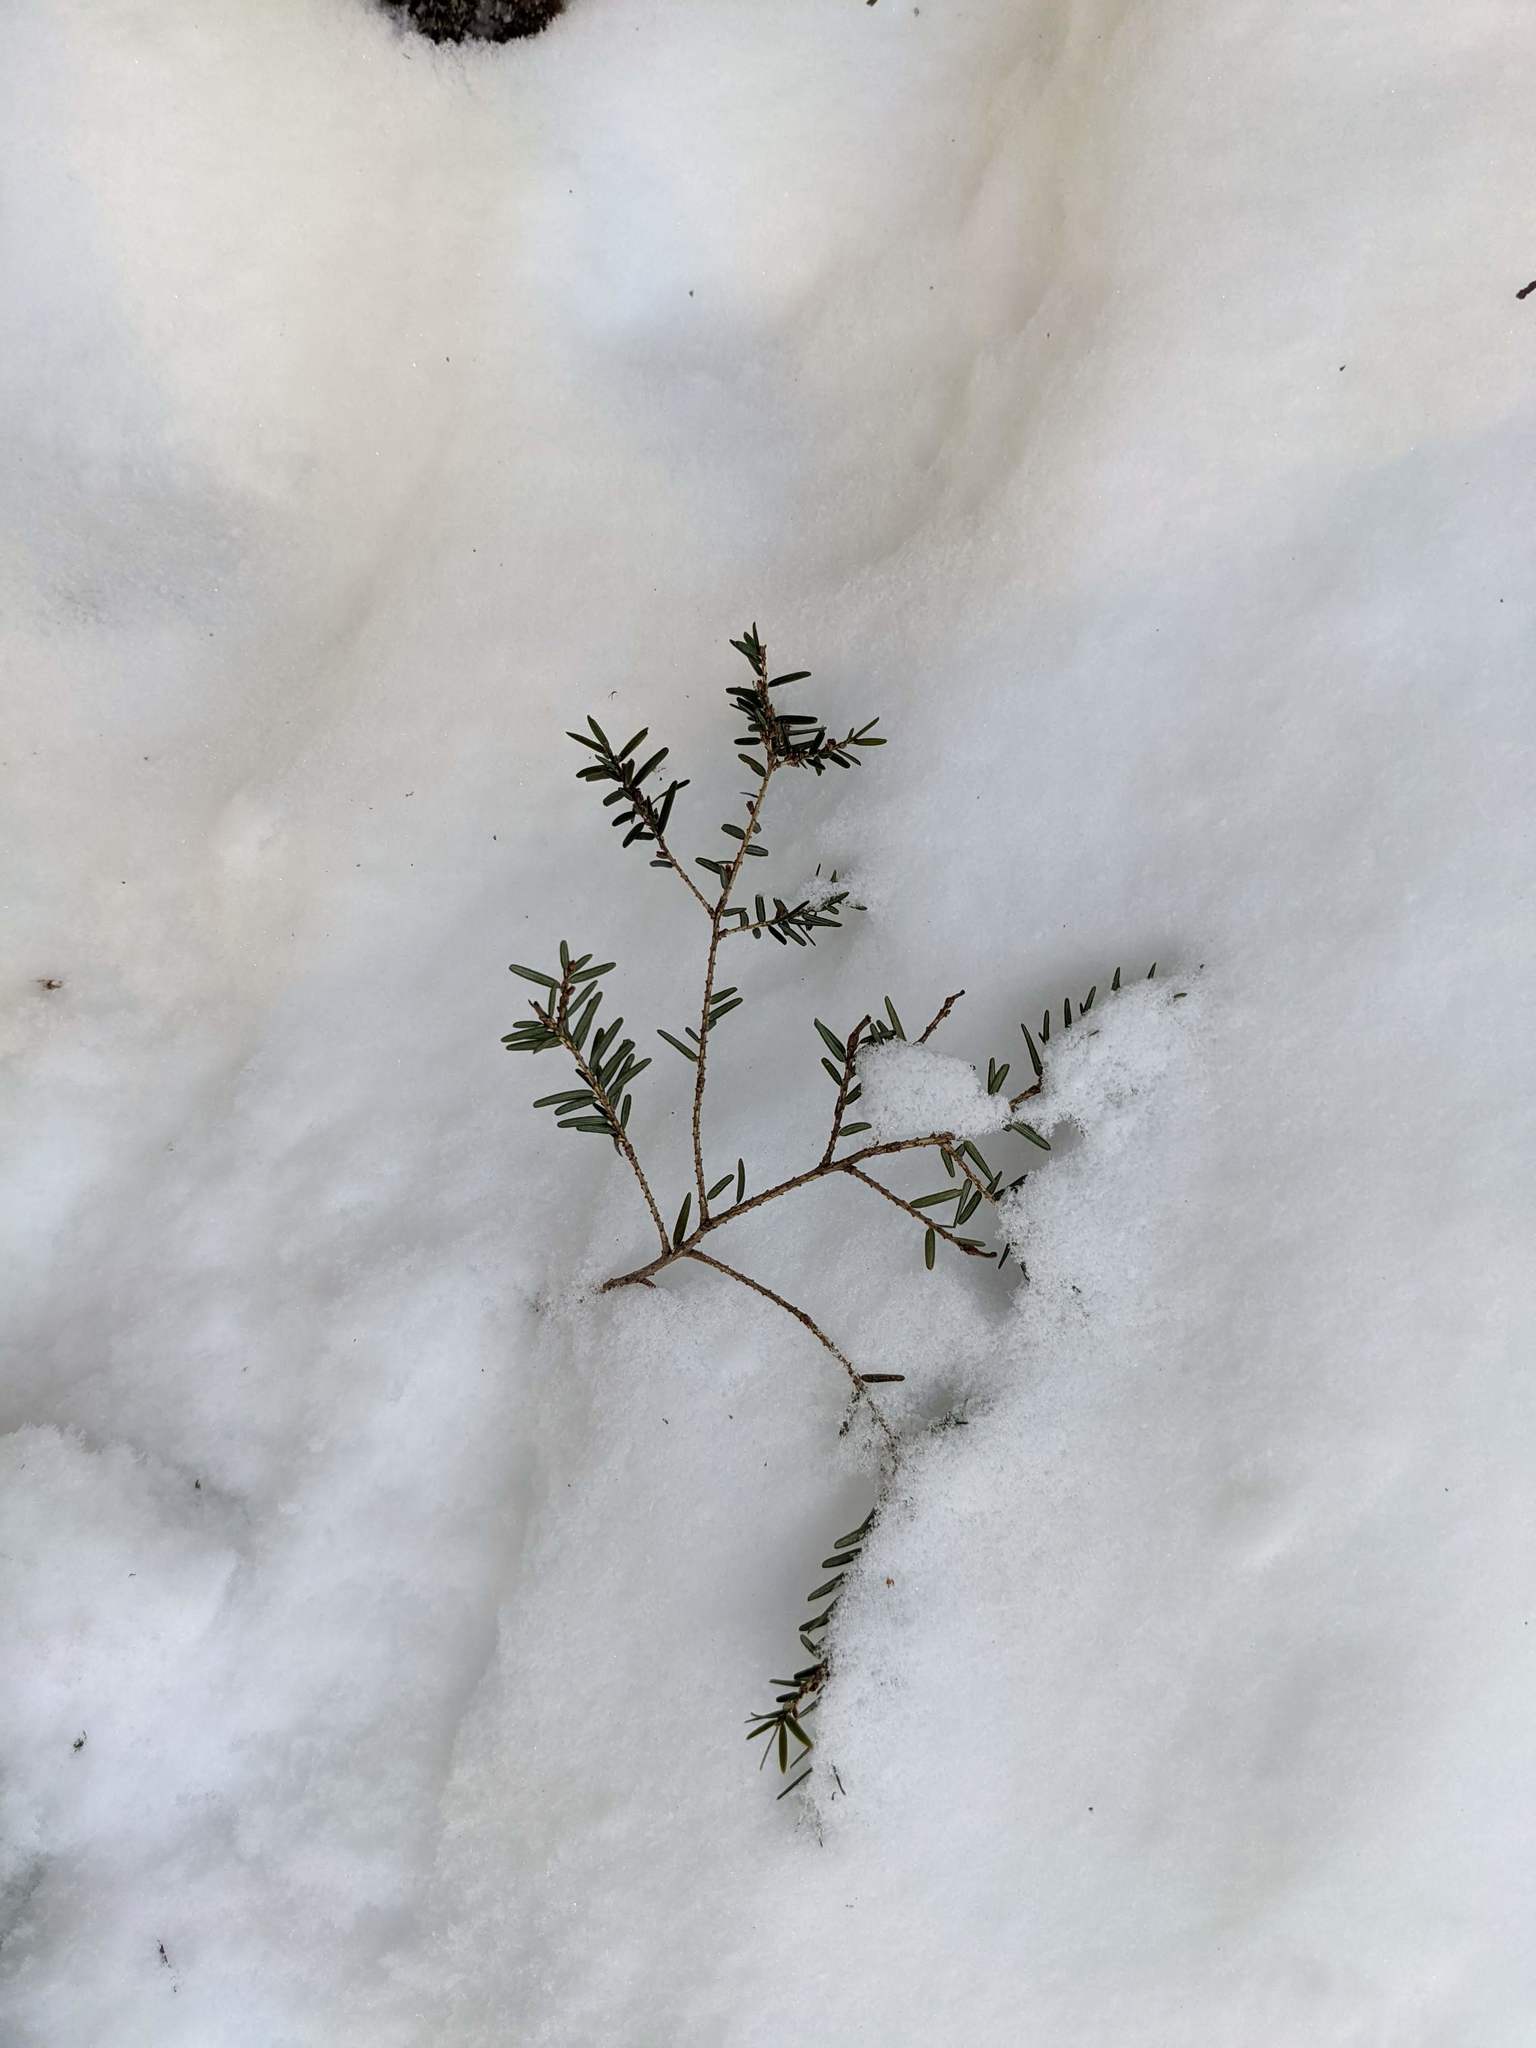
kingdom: Plantae
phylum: Tracheophyta
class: Pinopsida
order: Pinales
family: Pinaceae
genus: Tsuga
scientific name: Tsuga canadensis
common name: Eastern hemlock
